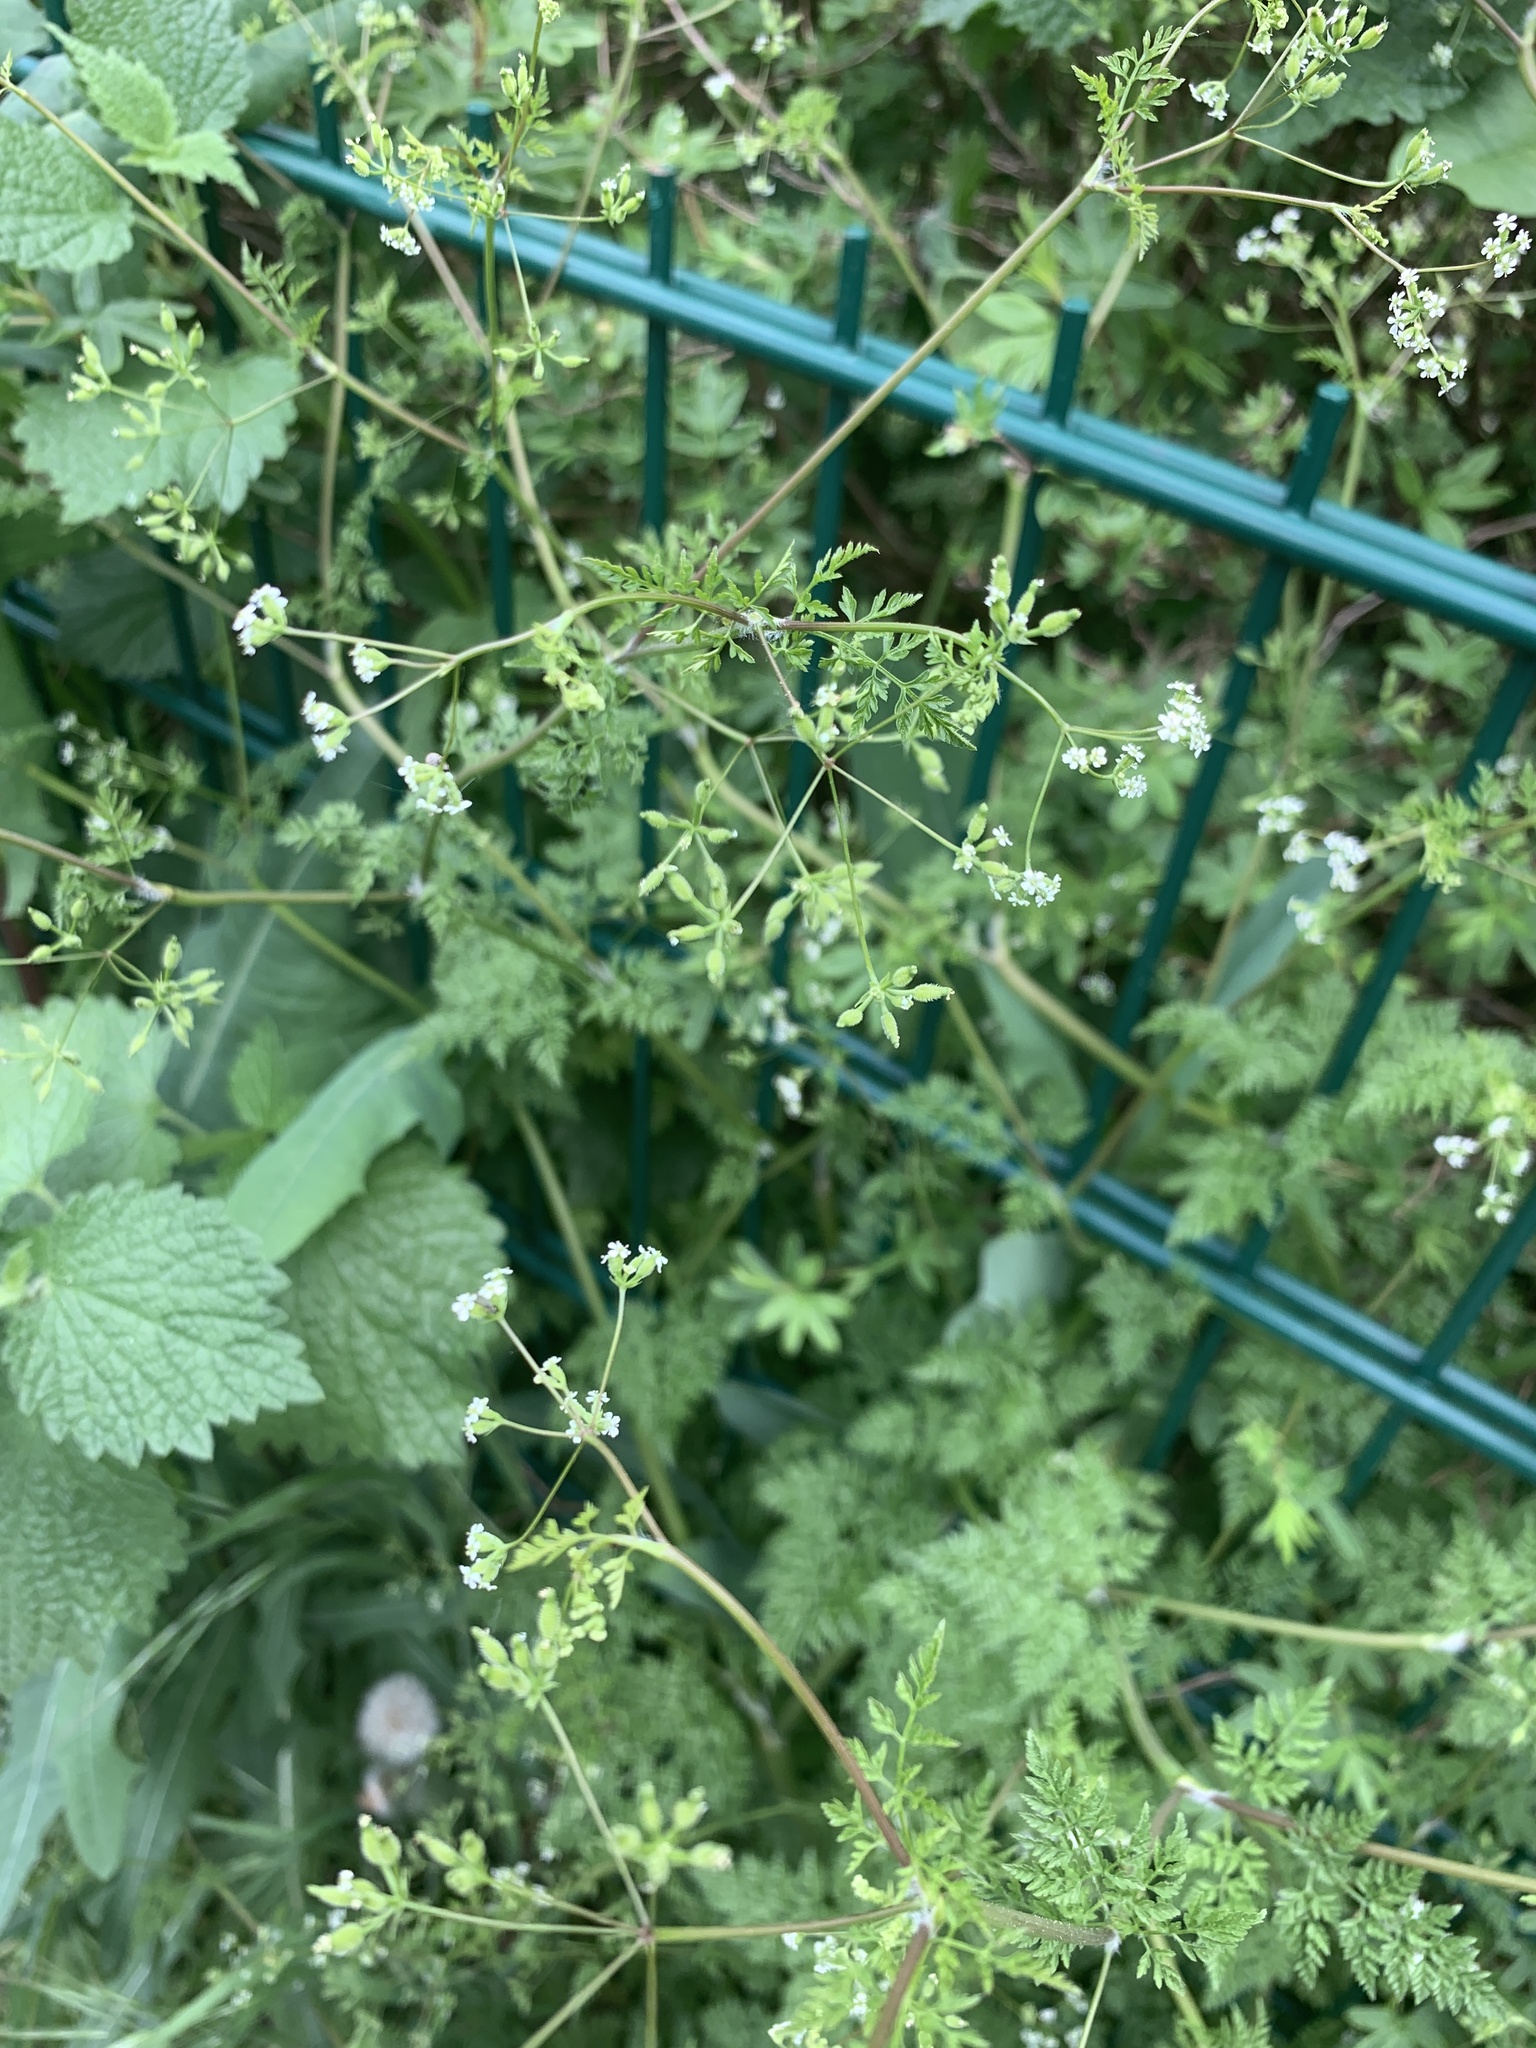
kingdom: Plantae
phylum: Tracheophyta
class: Magnoliopsida
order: Apiales
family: Apiaceae
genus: Anthriscus
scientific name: Anthriscus caucalis
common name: Bur chervil
